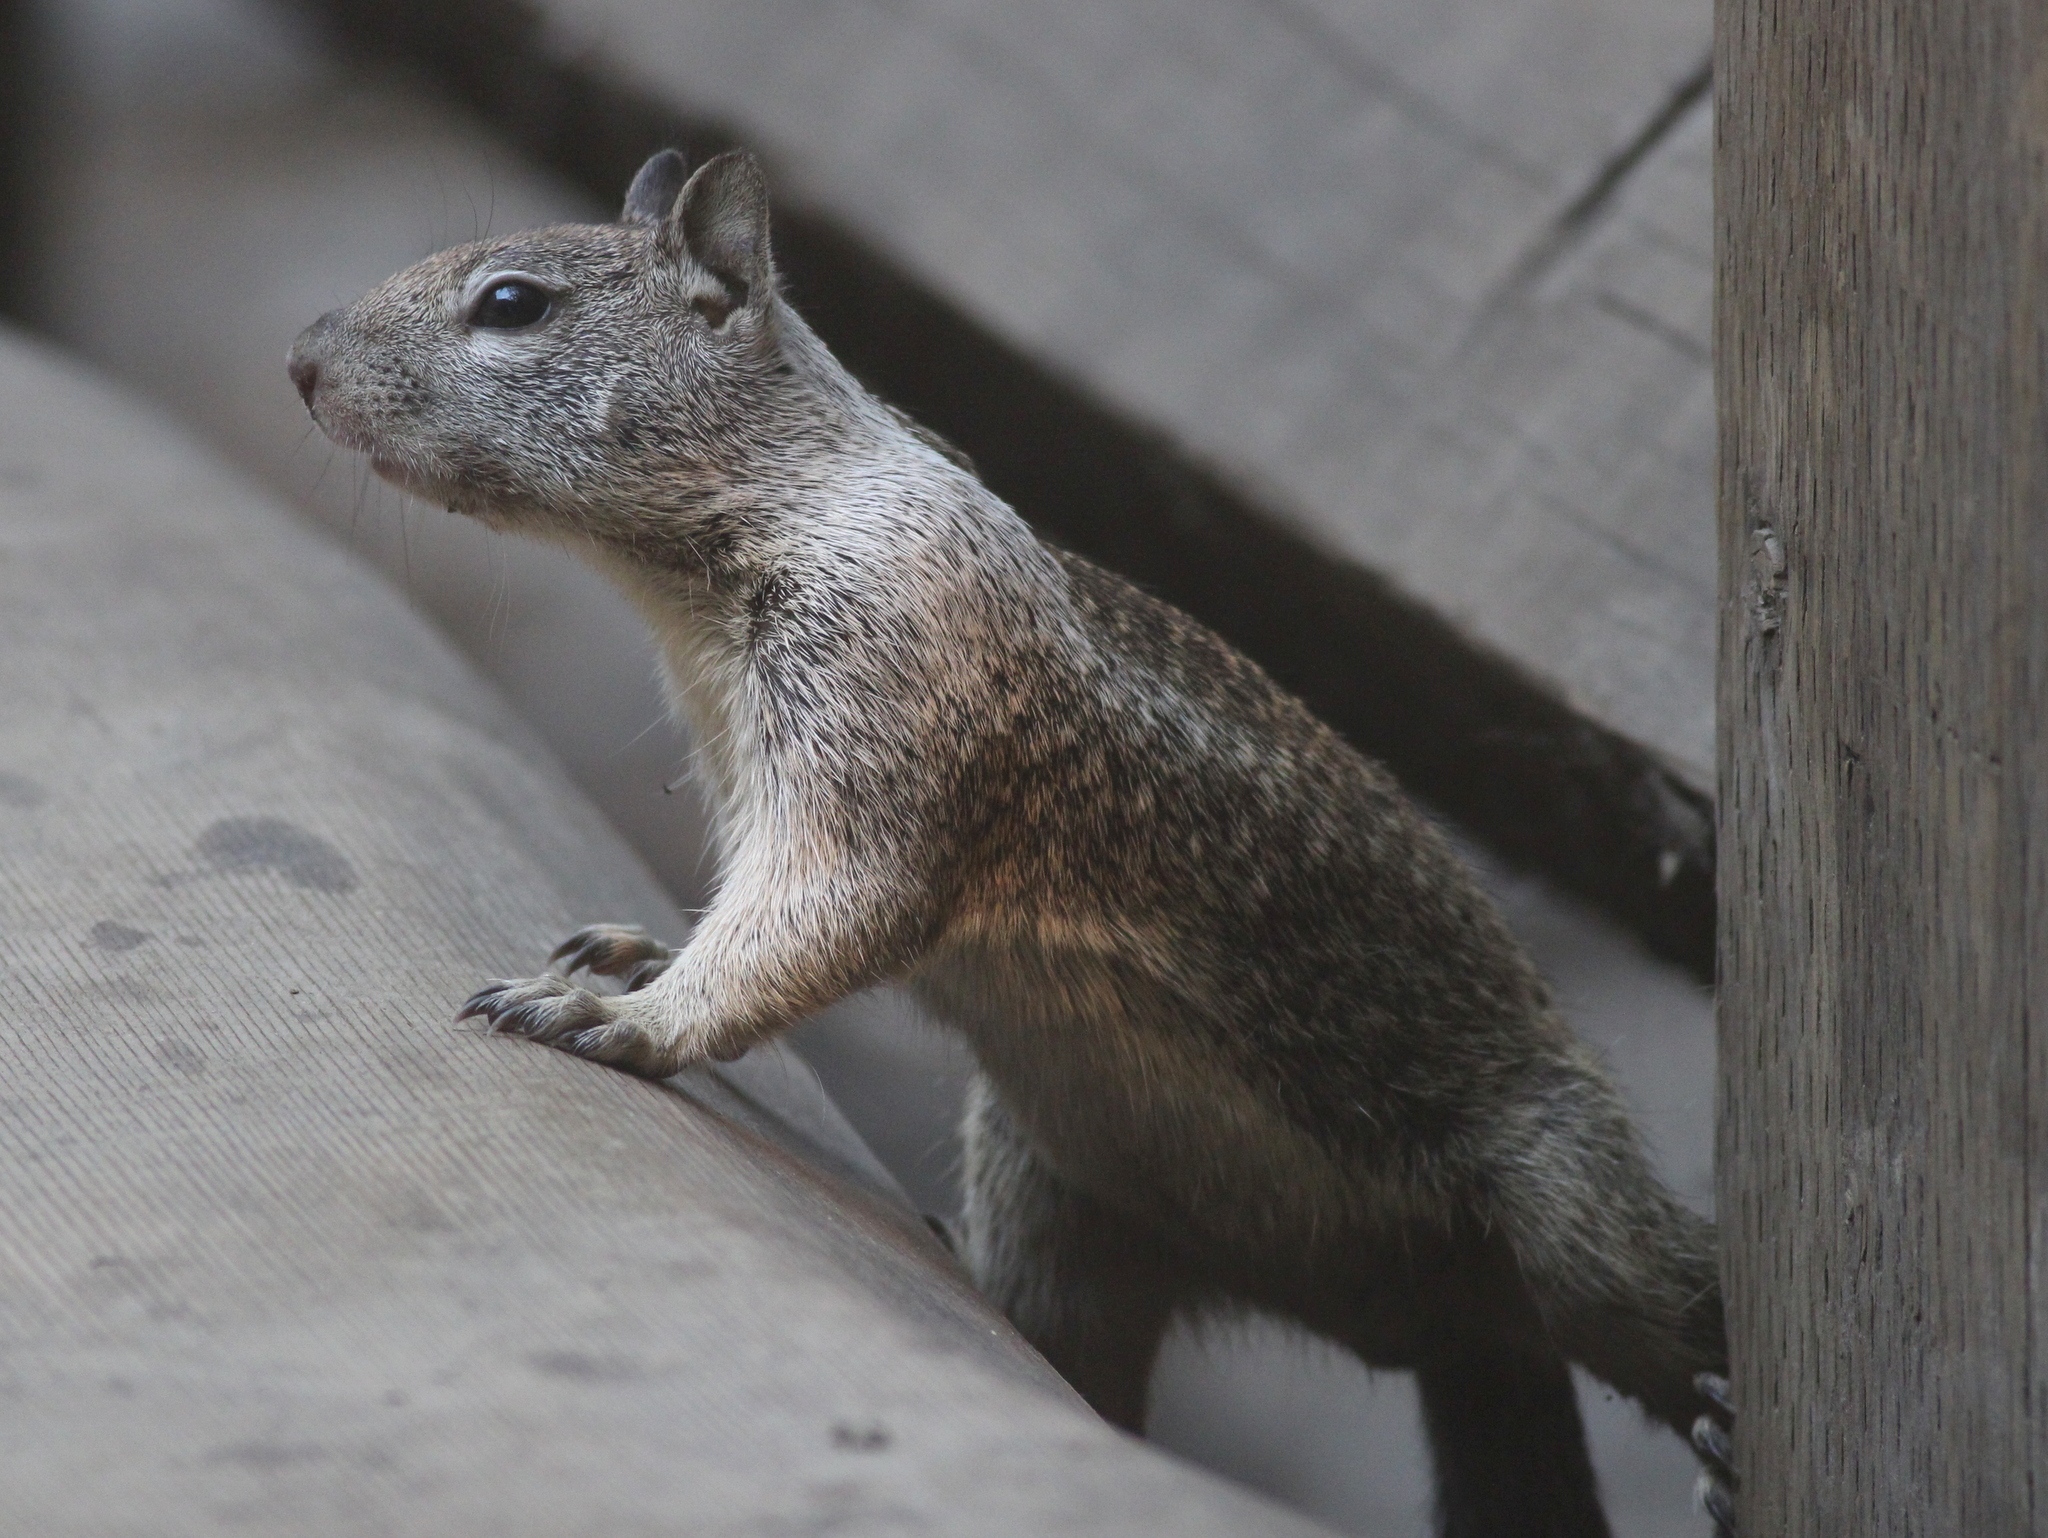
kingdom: Animalia
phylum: Chordata
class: Mammalia
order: Rodentia
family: Sciuridae
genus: Otospermophilus
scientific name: Otospermophilus beecheyi
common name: California ground squirrel
